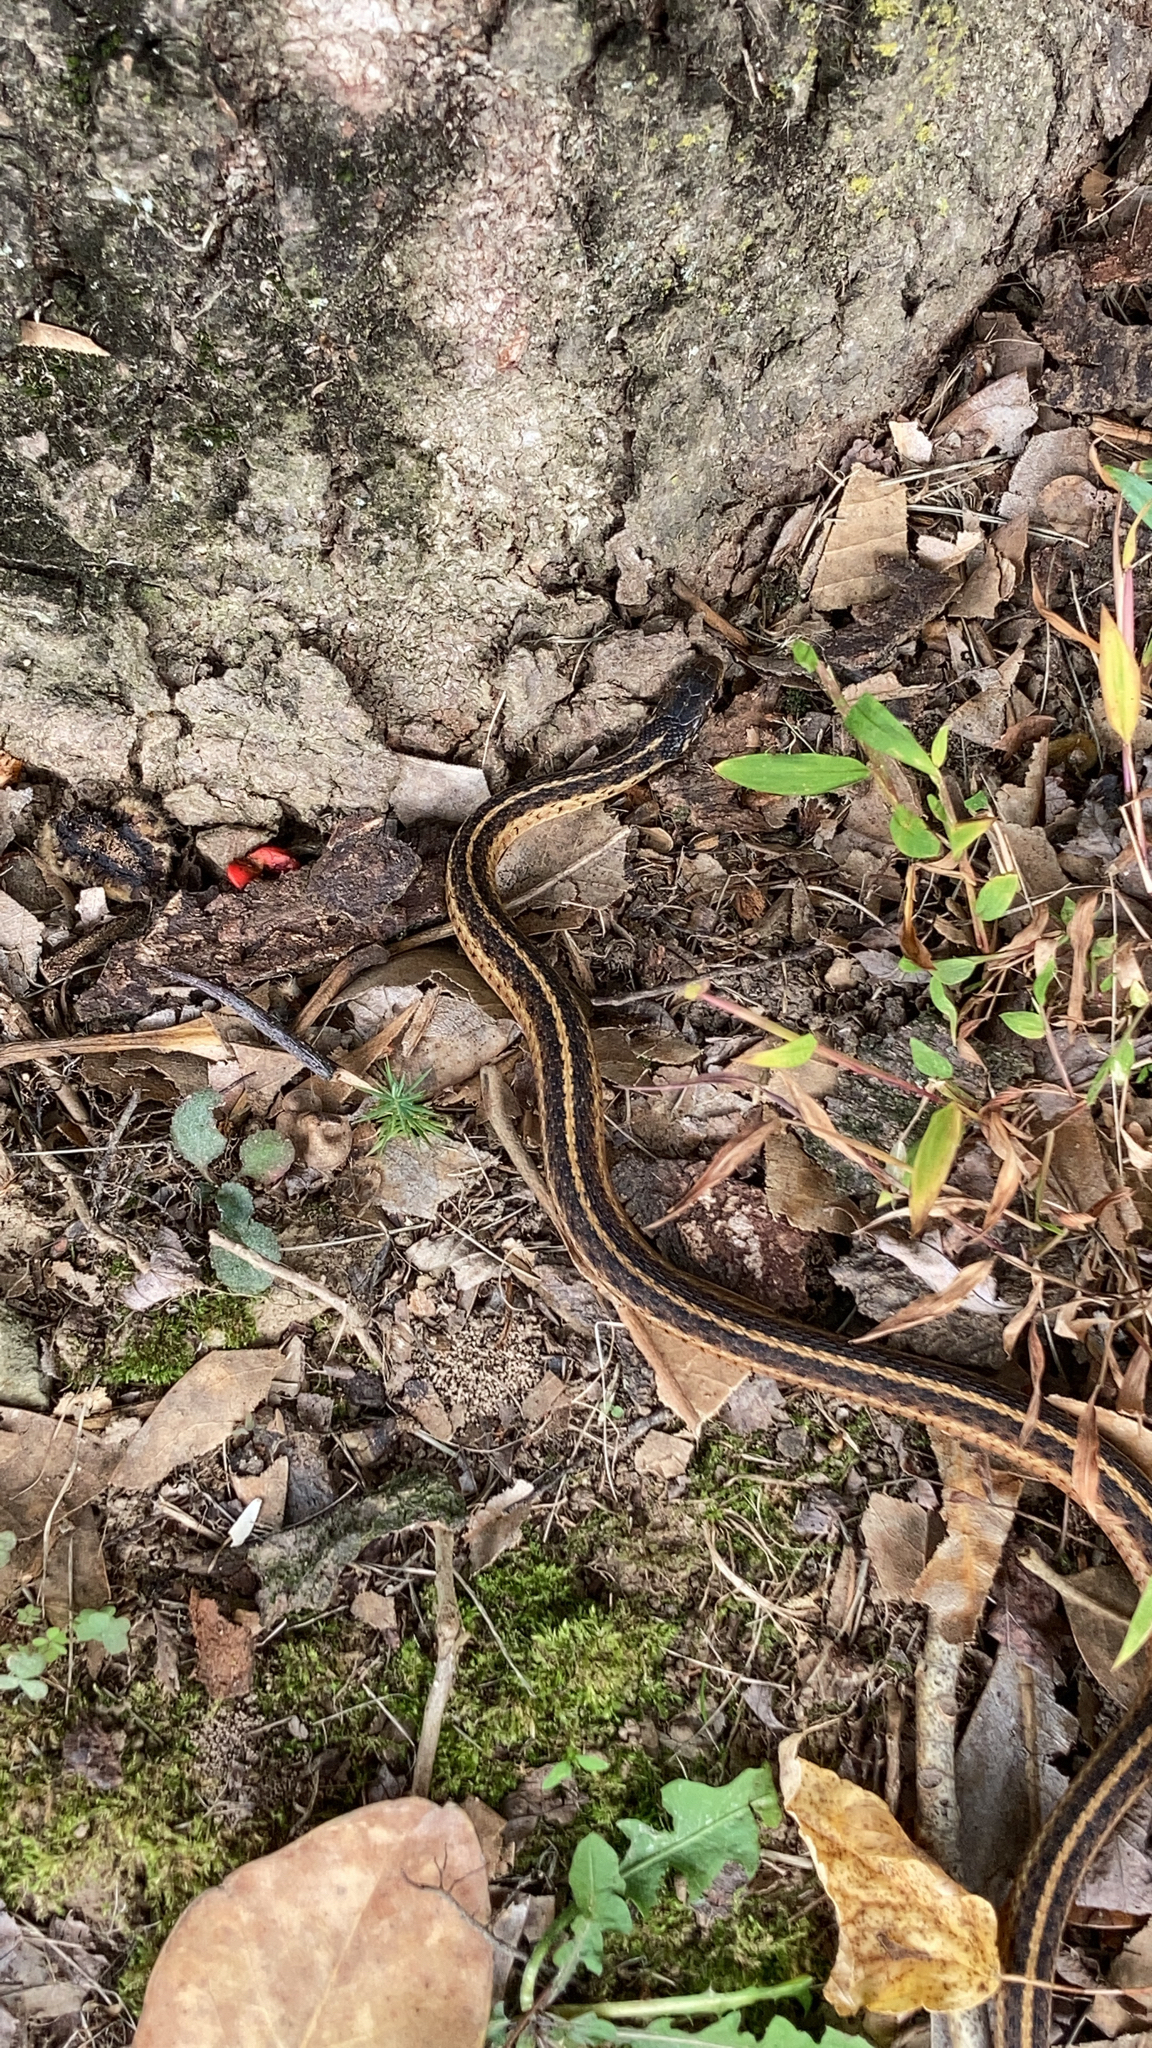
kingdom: Animalia
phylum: Chordata
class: Squamata
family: Colubridae
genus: Thamnophis
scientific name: Thamnophis sirtalis
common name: Common garter snake
